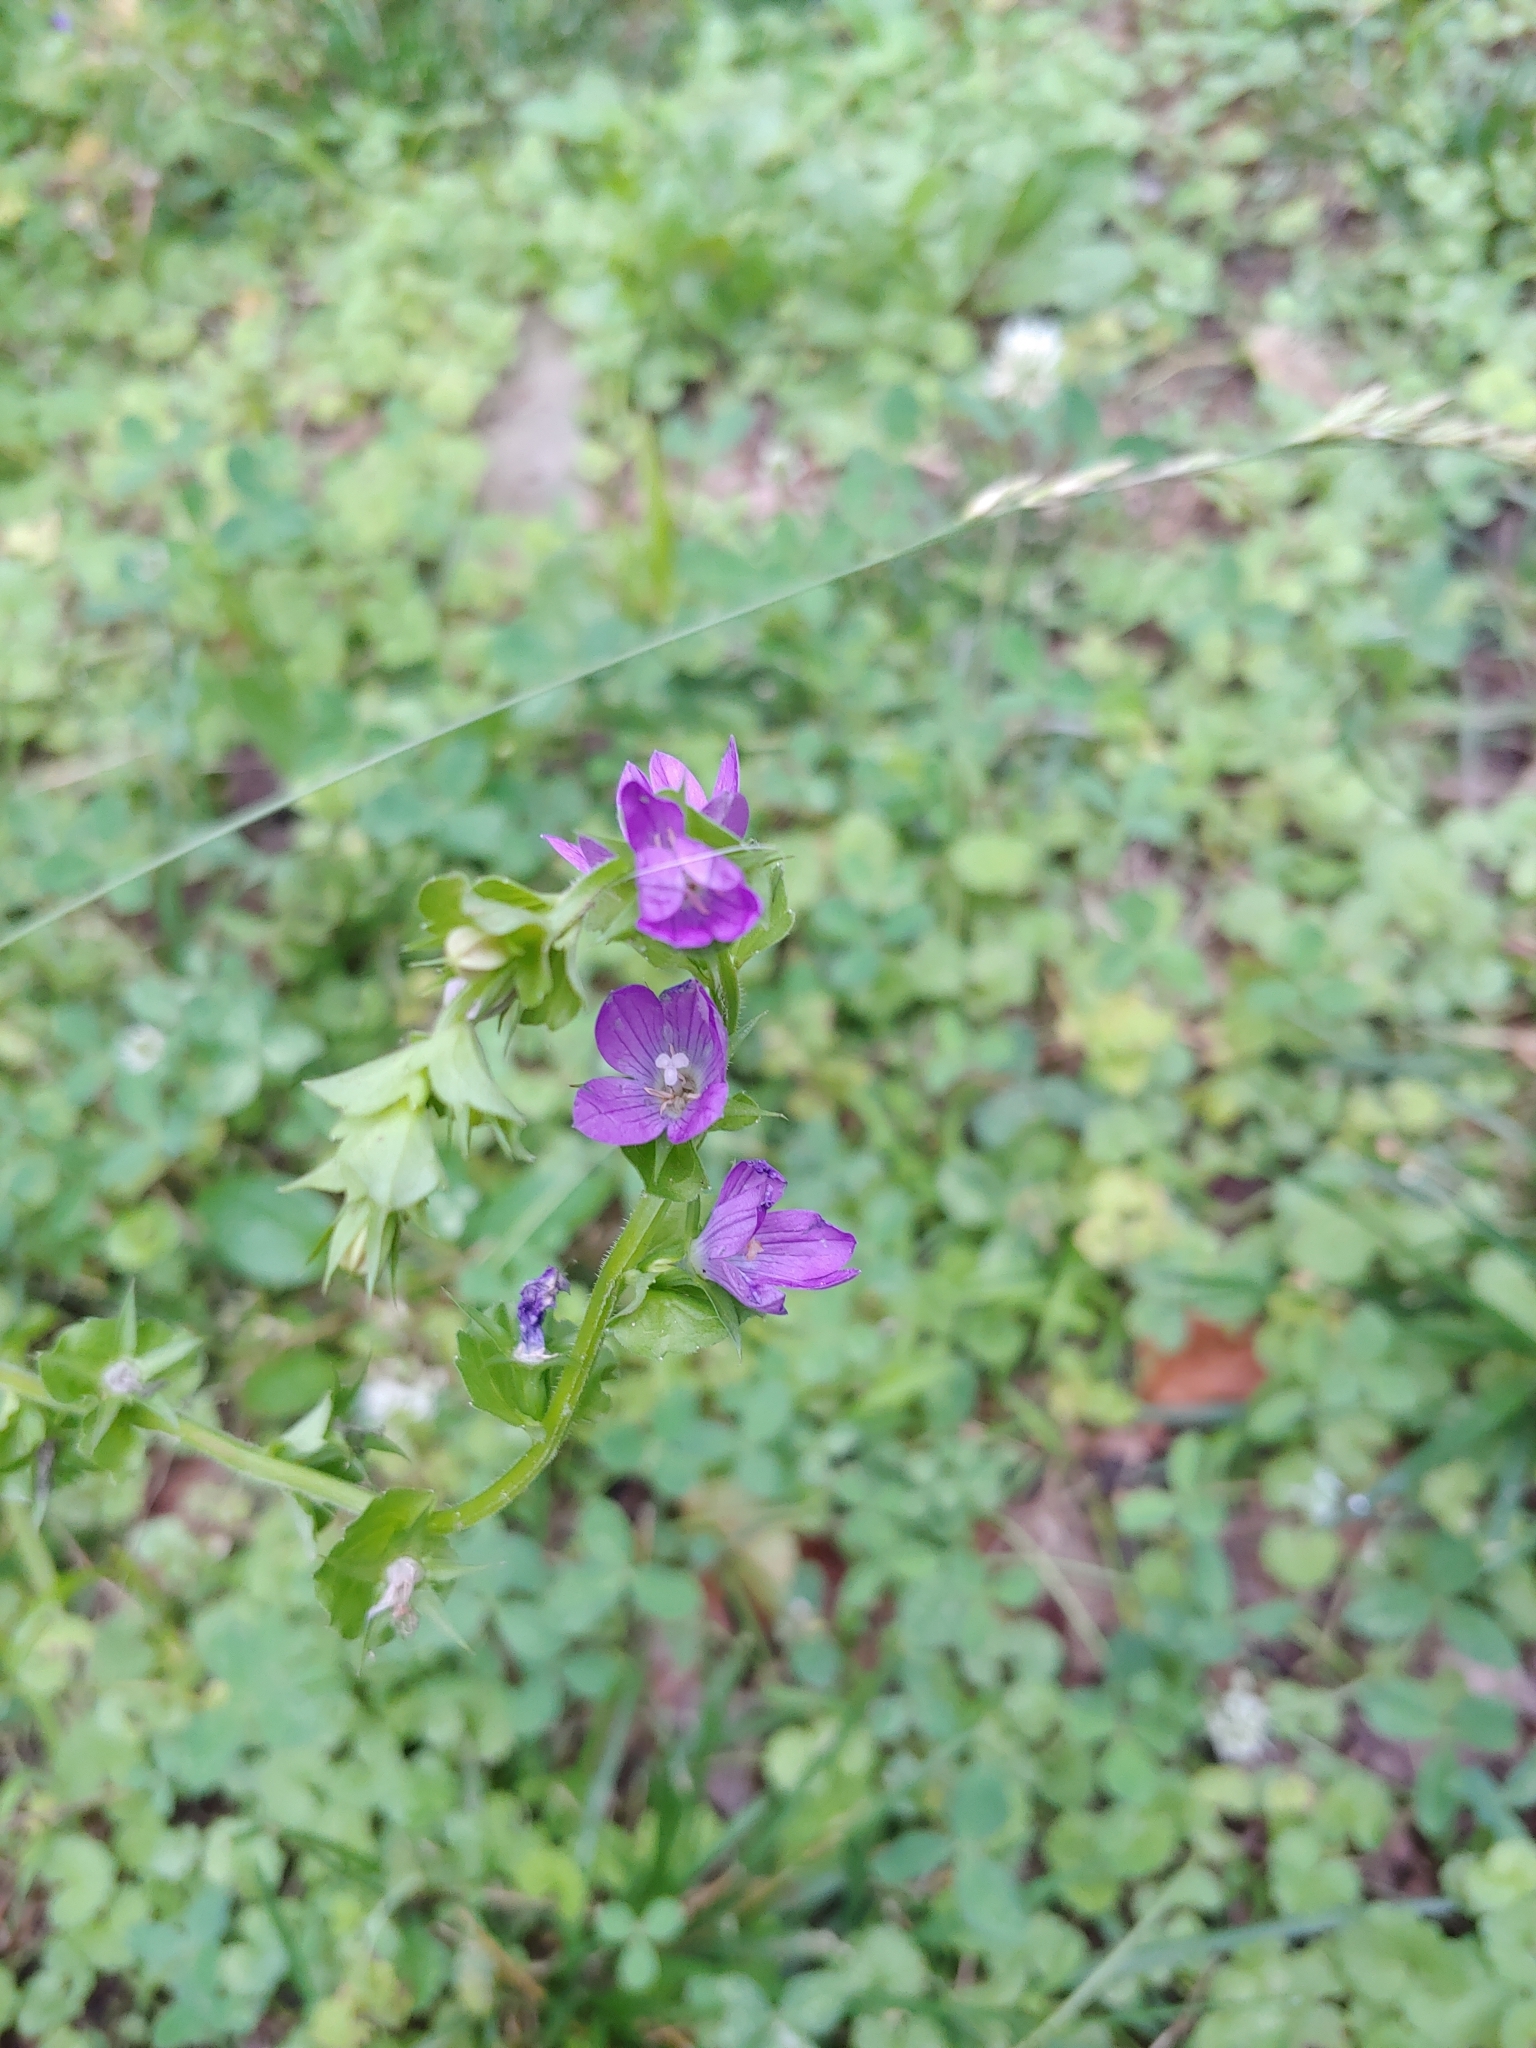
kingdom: Plantae
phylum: Tracheophyta
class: Magnoliopsida
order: Asterales
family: Campanulaceae
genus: Triodanis
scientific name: Triodanis perfoliata
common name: Clasping venus' looking-glass
